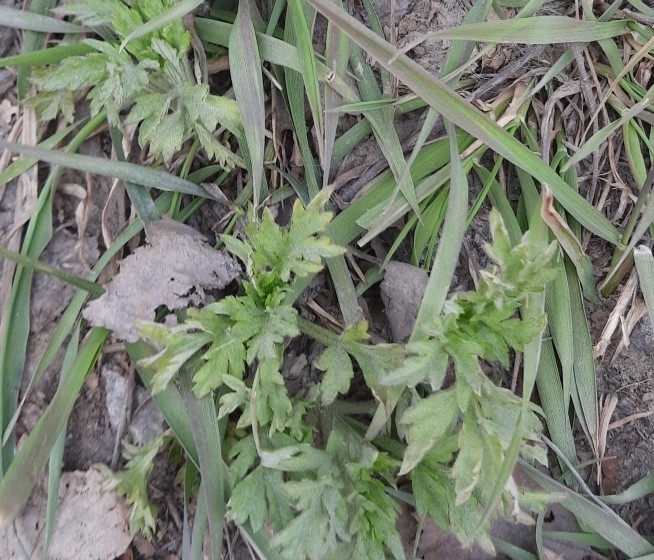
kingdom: Plantae
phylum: Tracheophyta
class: Magnoliopsida
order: Asterales
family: Asteraceae
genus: Artemisia
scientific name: Artemisia vulgaris
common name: Mugwort
